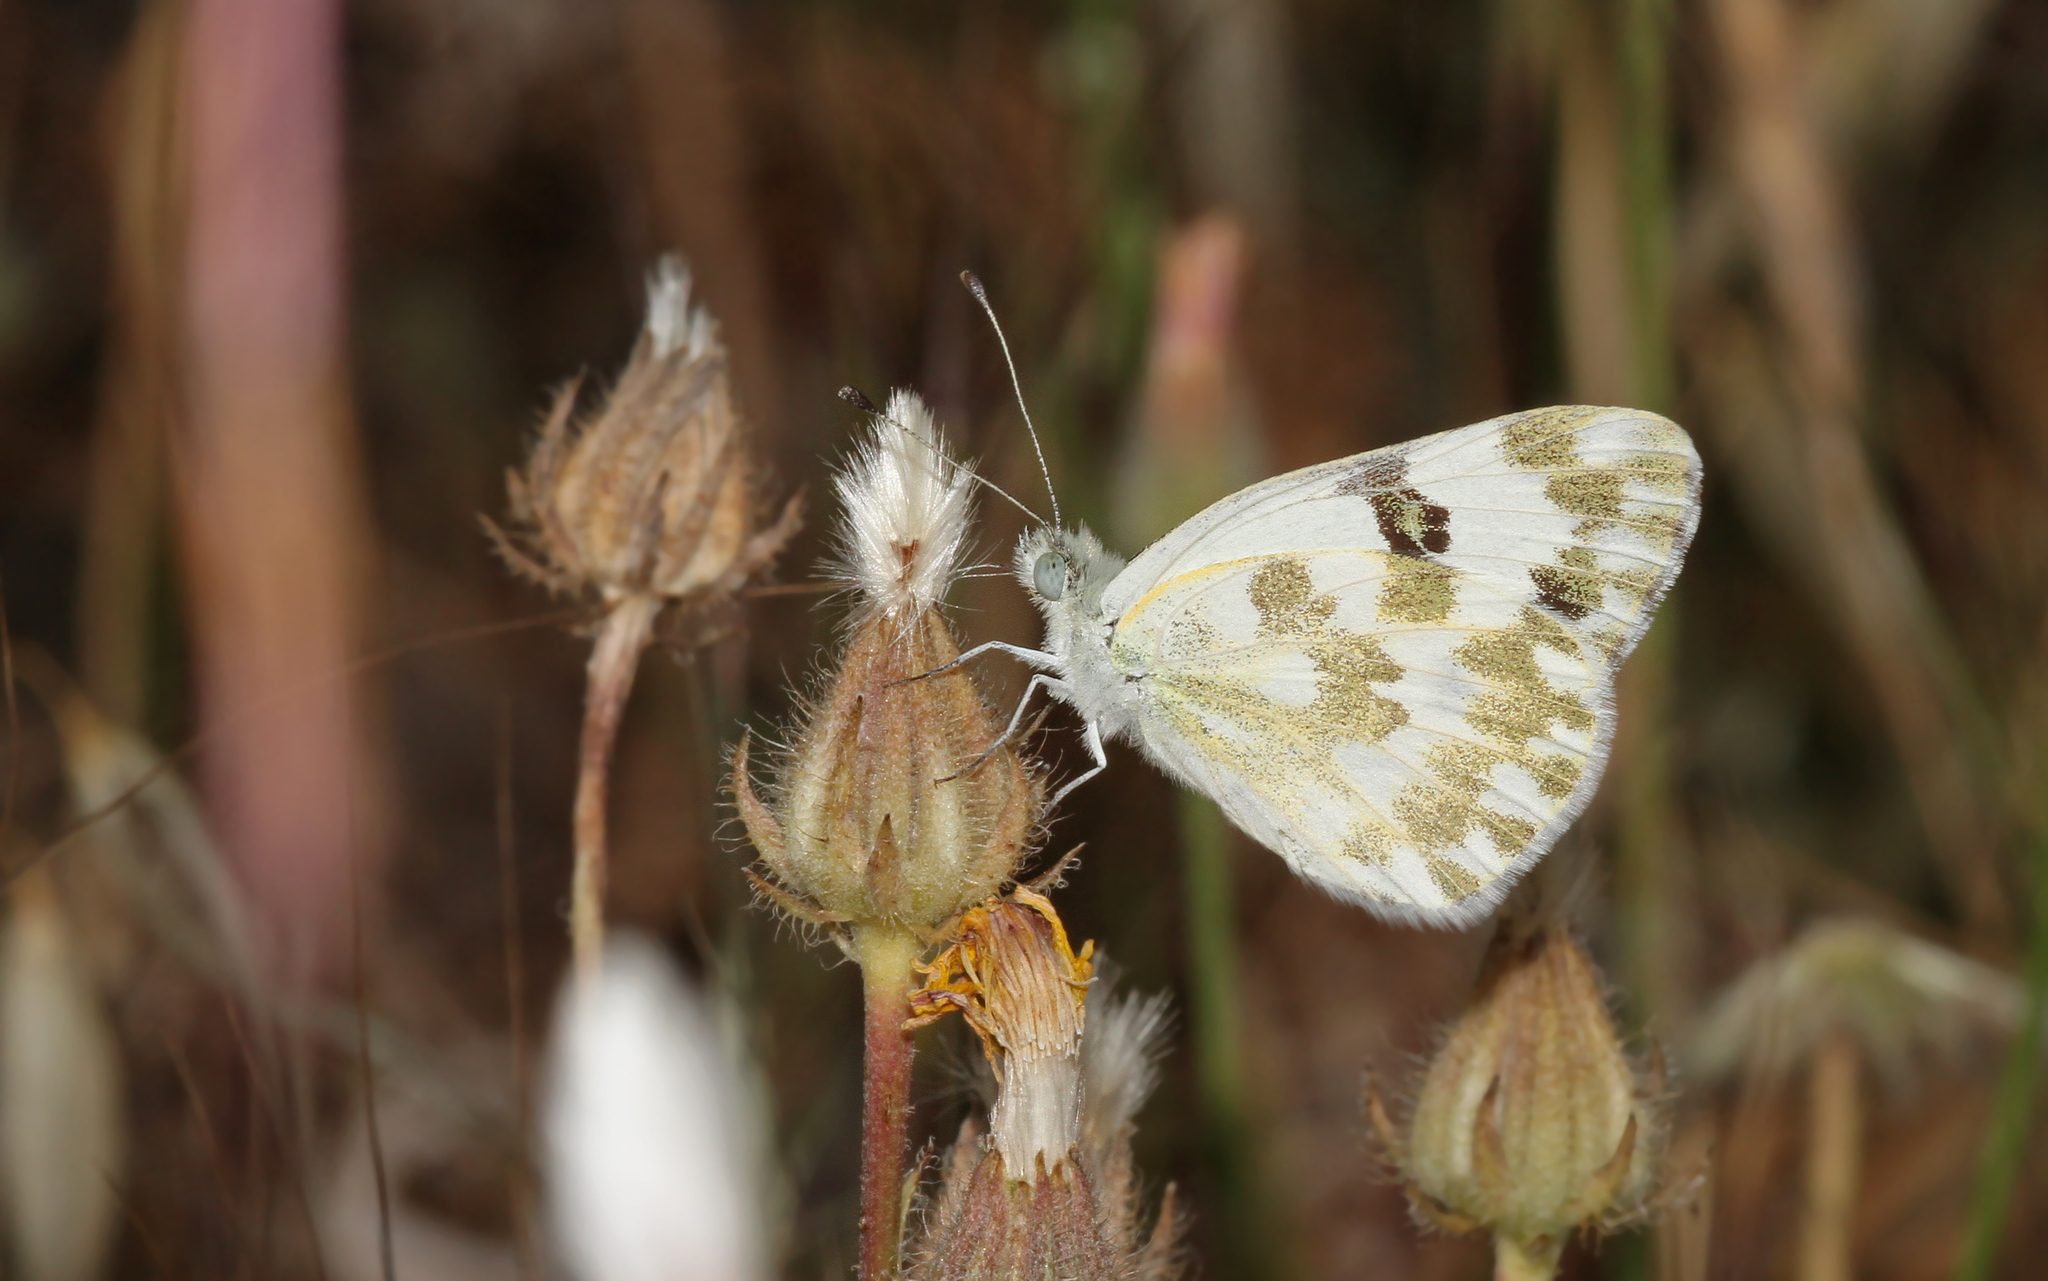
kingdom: Animalia
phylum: Arthropoda
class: Insecta
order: Lepidoptera
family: Pieridae
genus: Pontia
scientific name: Pontia daplidice
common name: Bath white
